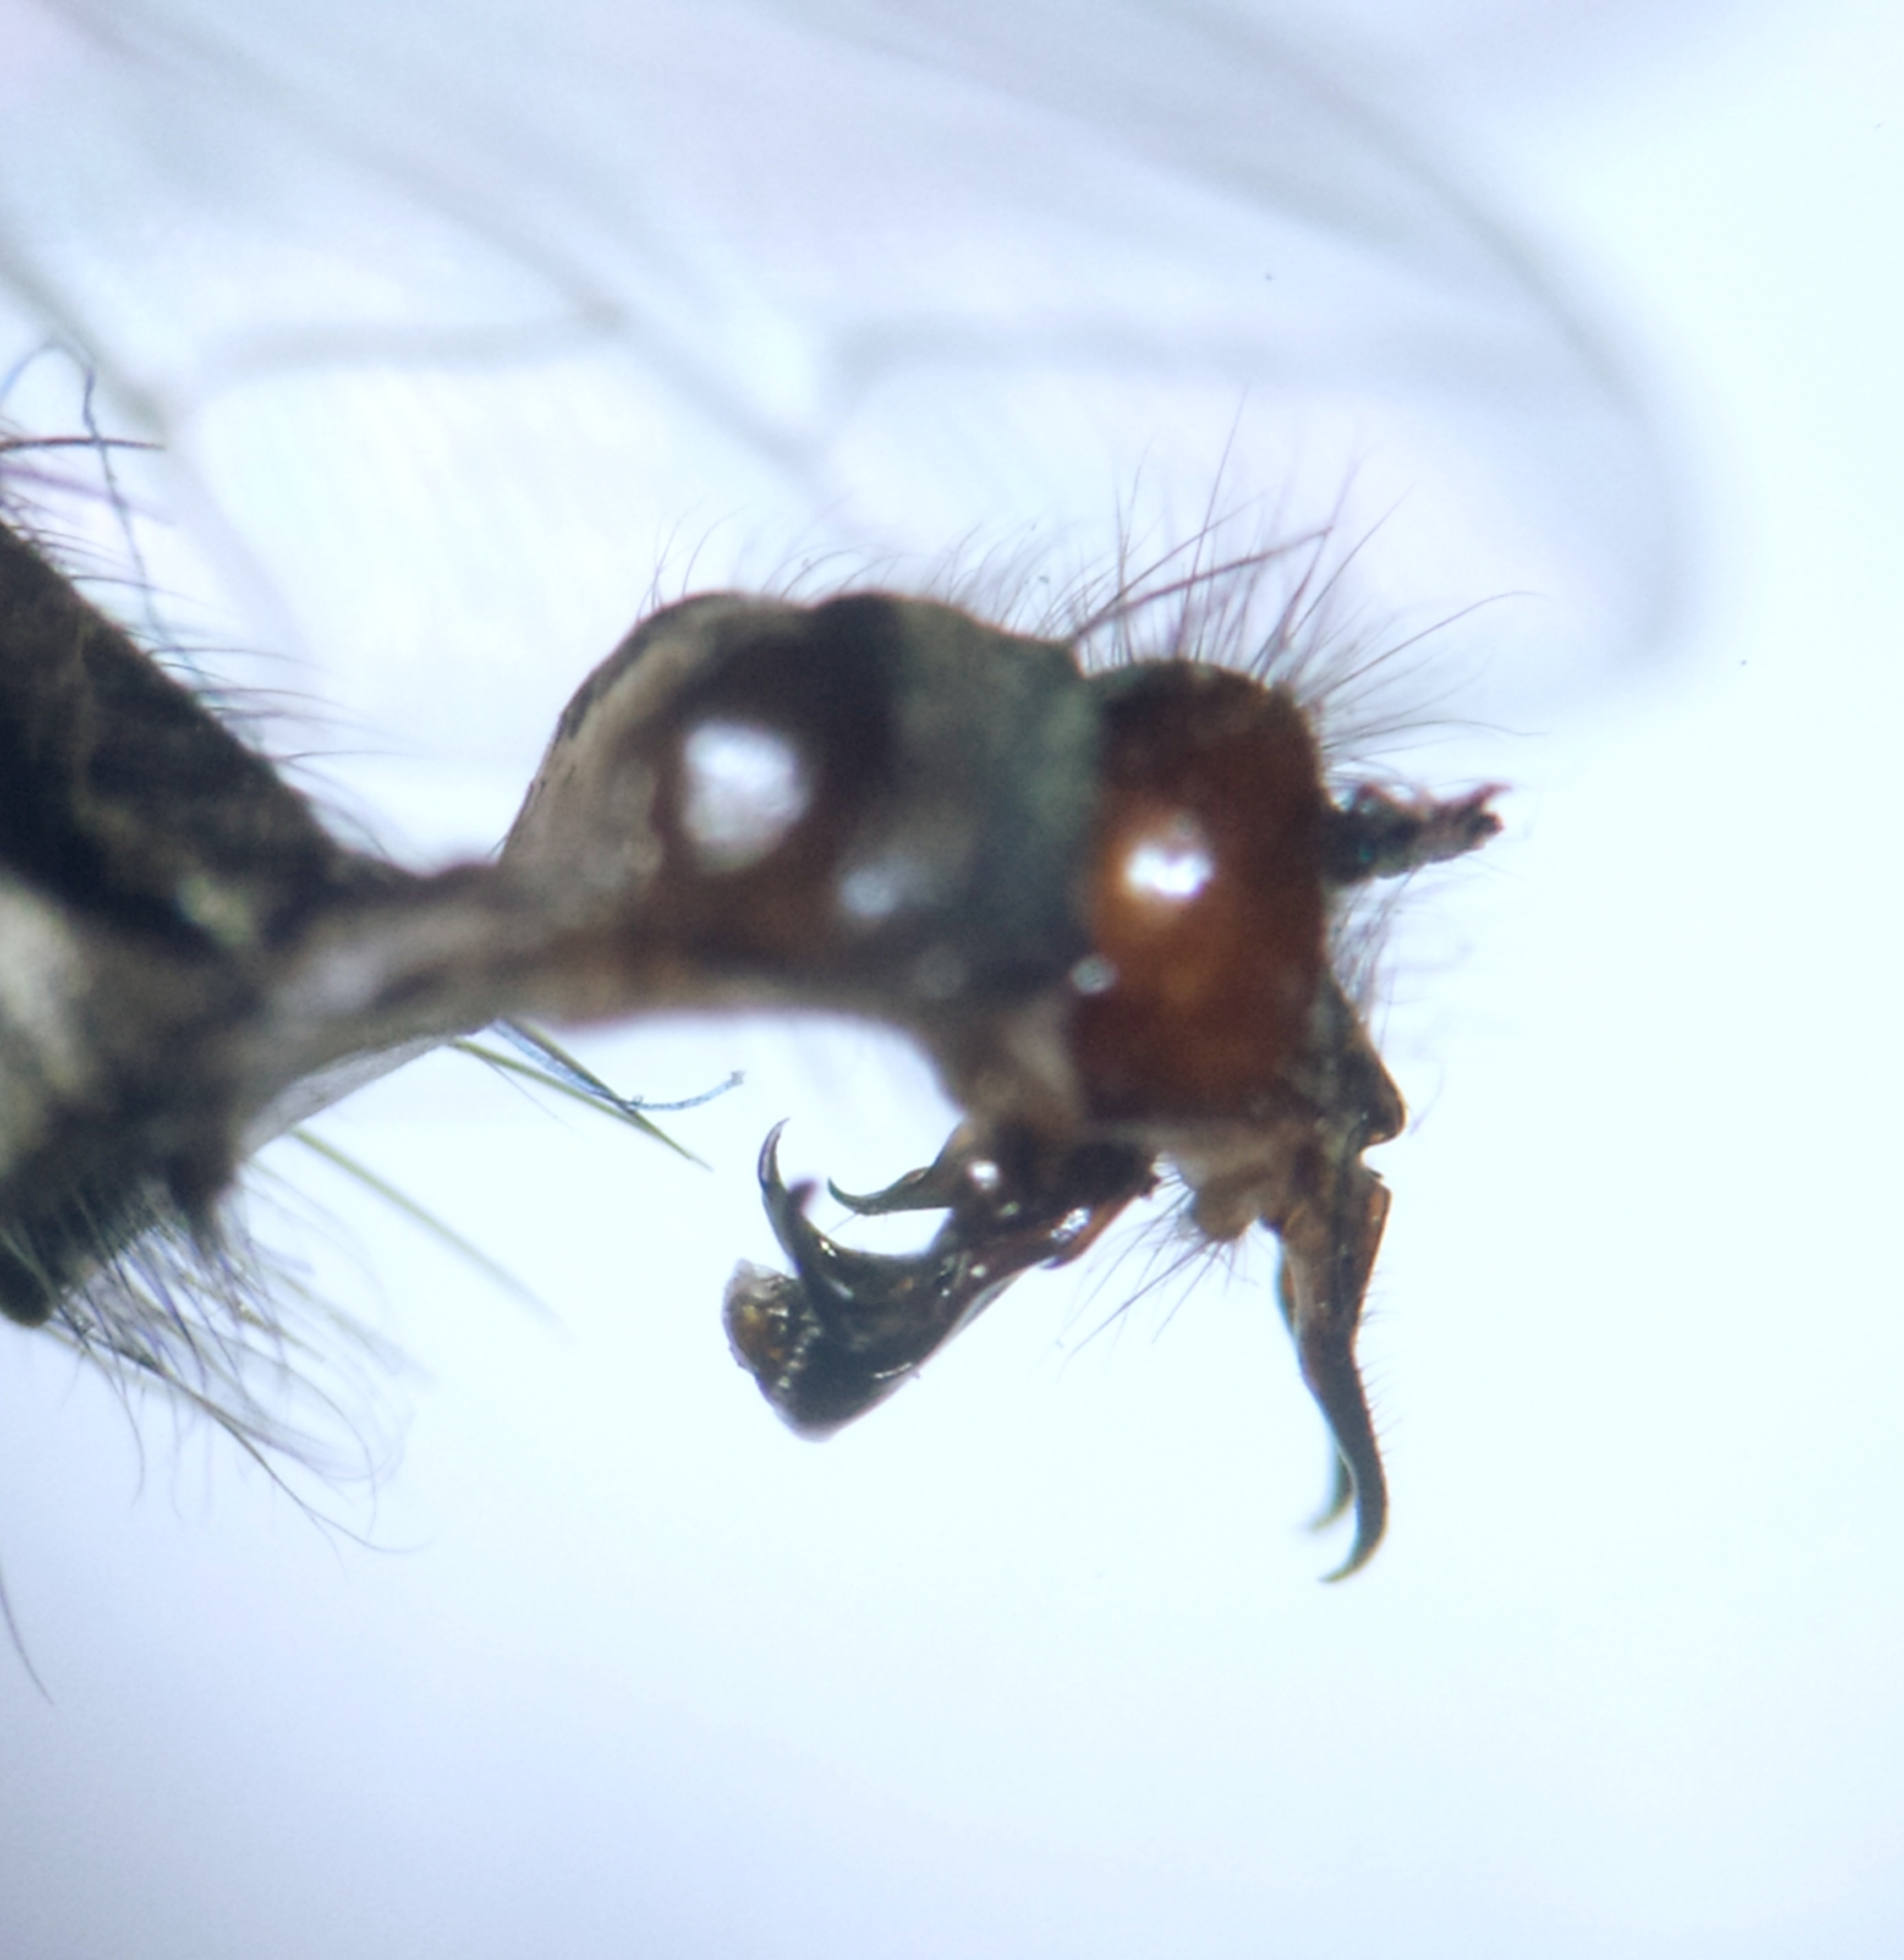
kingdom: Animalia
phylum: Arthropoda
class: Insecta
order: Diptera
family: Sarcophagidae
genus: Sarcophaga
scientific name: Sarcophaga africa
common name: Flesh fly
